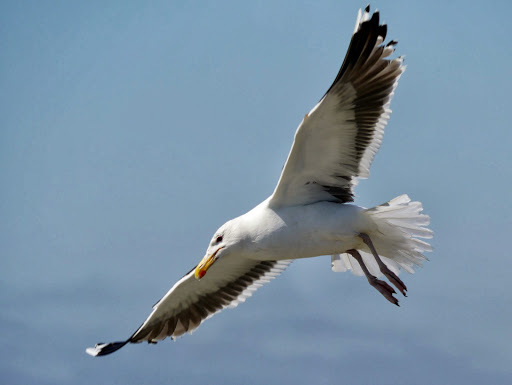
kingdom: Animalia
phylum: Chordata
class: Aves
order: Charadriiformes
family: Laridae
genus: Larus
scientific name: Larus marinus
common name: Great black-backed gull
